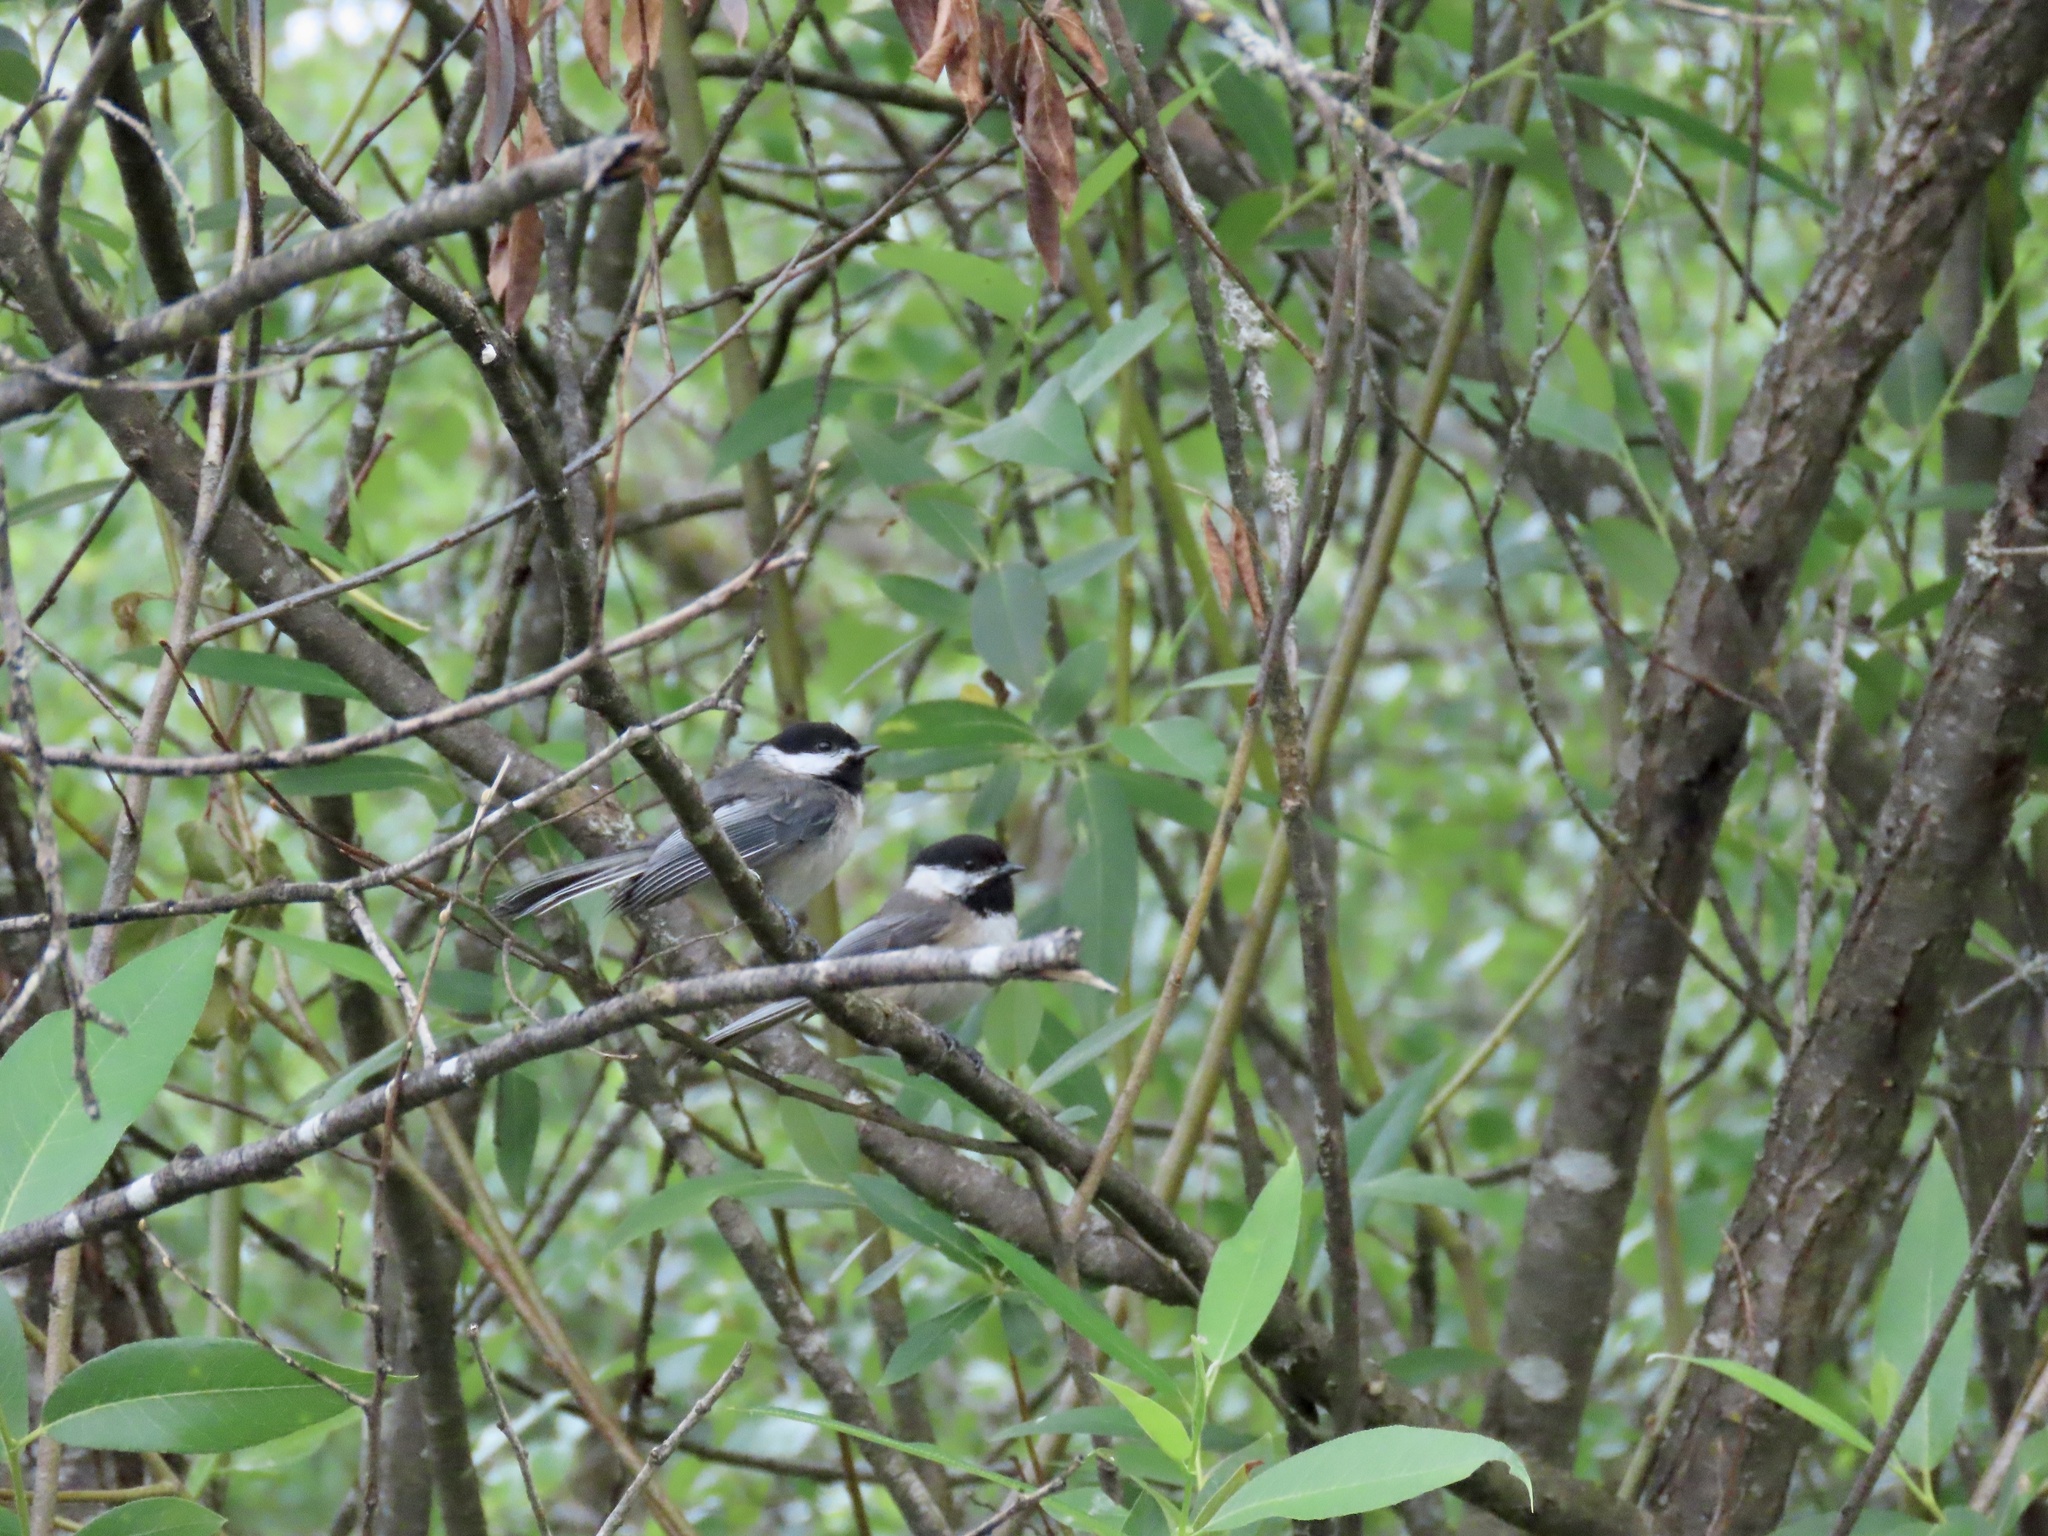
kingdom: Animalia
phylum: Chordata
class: Aves
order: Passeriformes
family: Paridae
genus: Poecile
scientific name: Poecile atricapillus
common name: Black-capped chickadee
